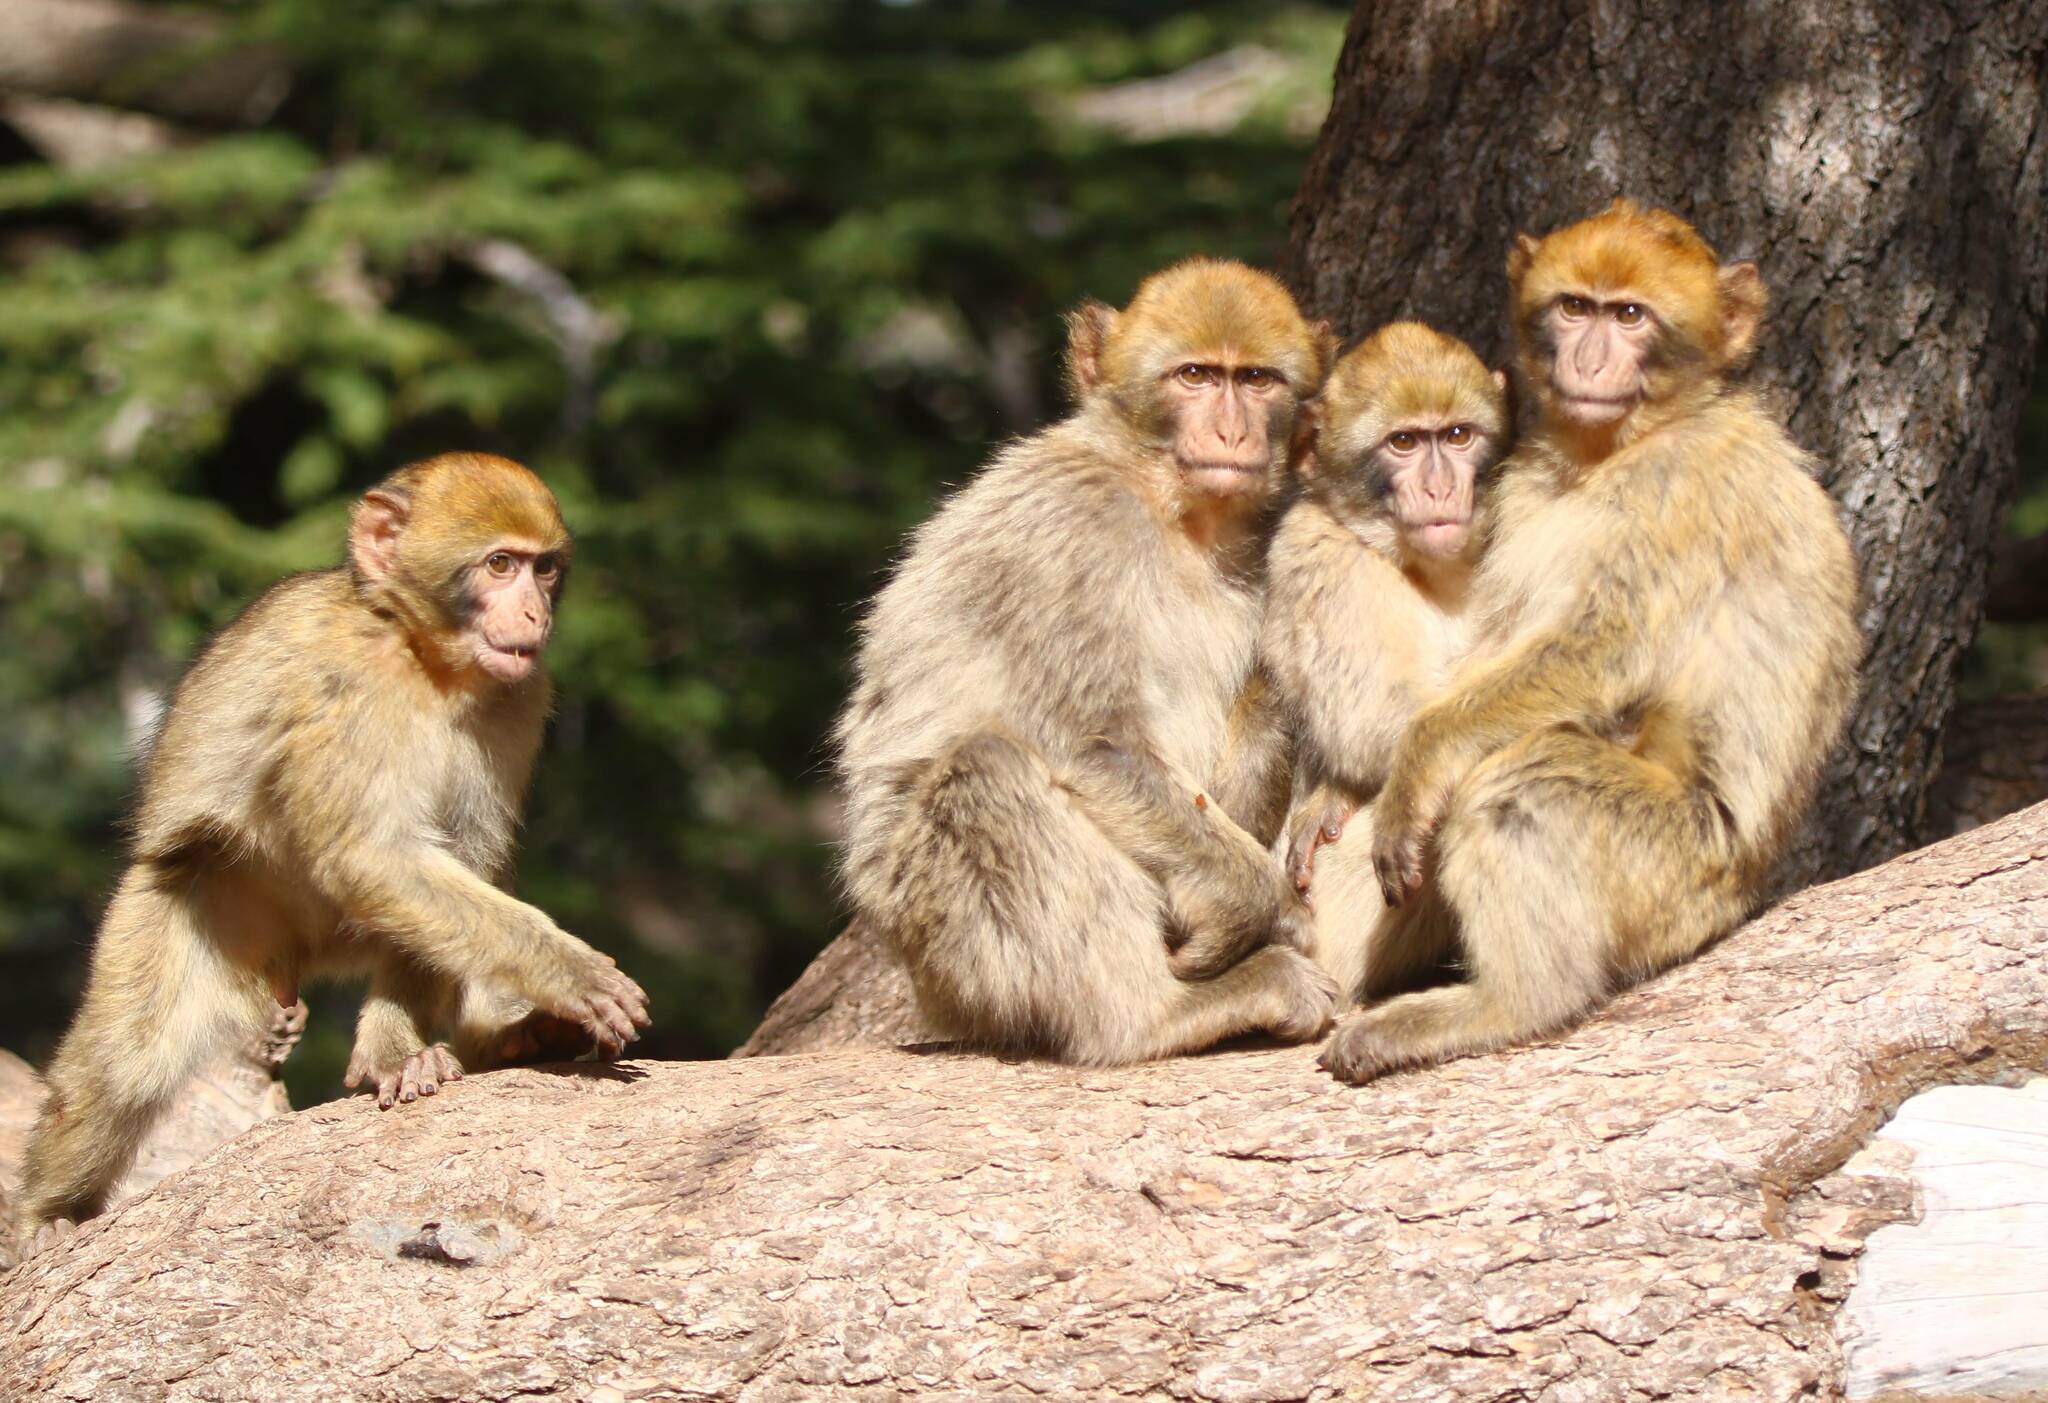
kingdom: Animalia
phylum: Chordata
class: Mammalia
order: Primates
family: Cercopithecidae
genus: Macaca
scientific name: Macaca sylvanus
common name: Barbary macaque
